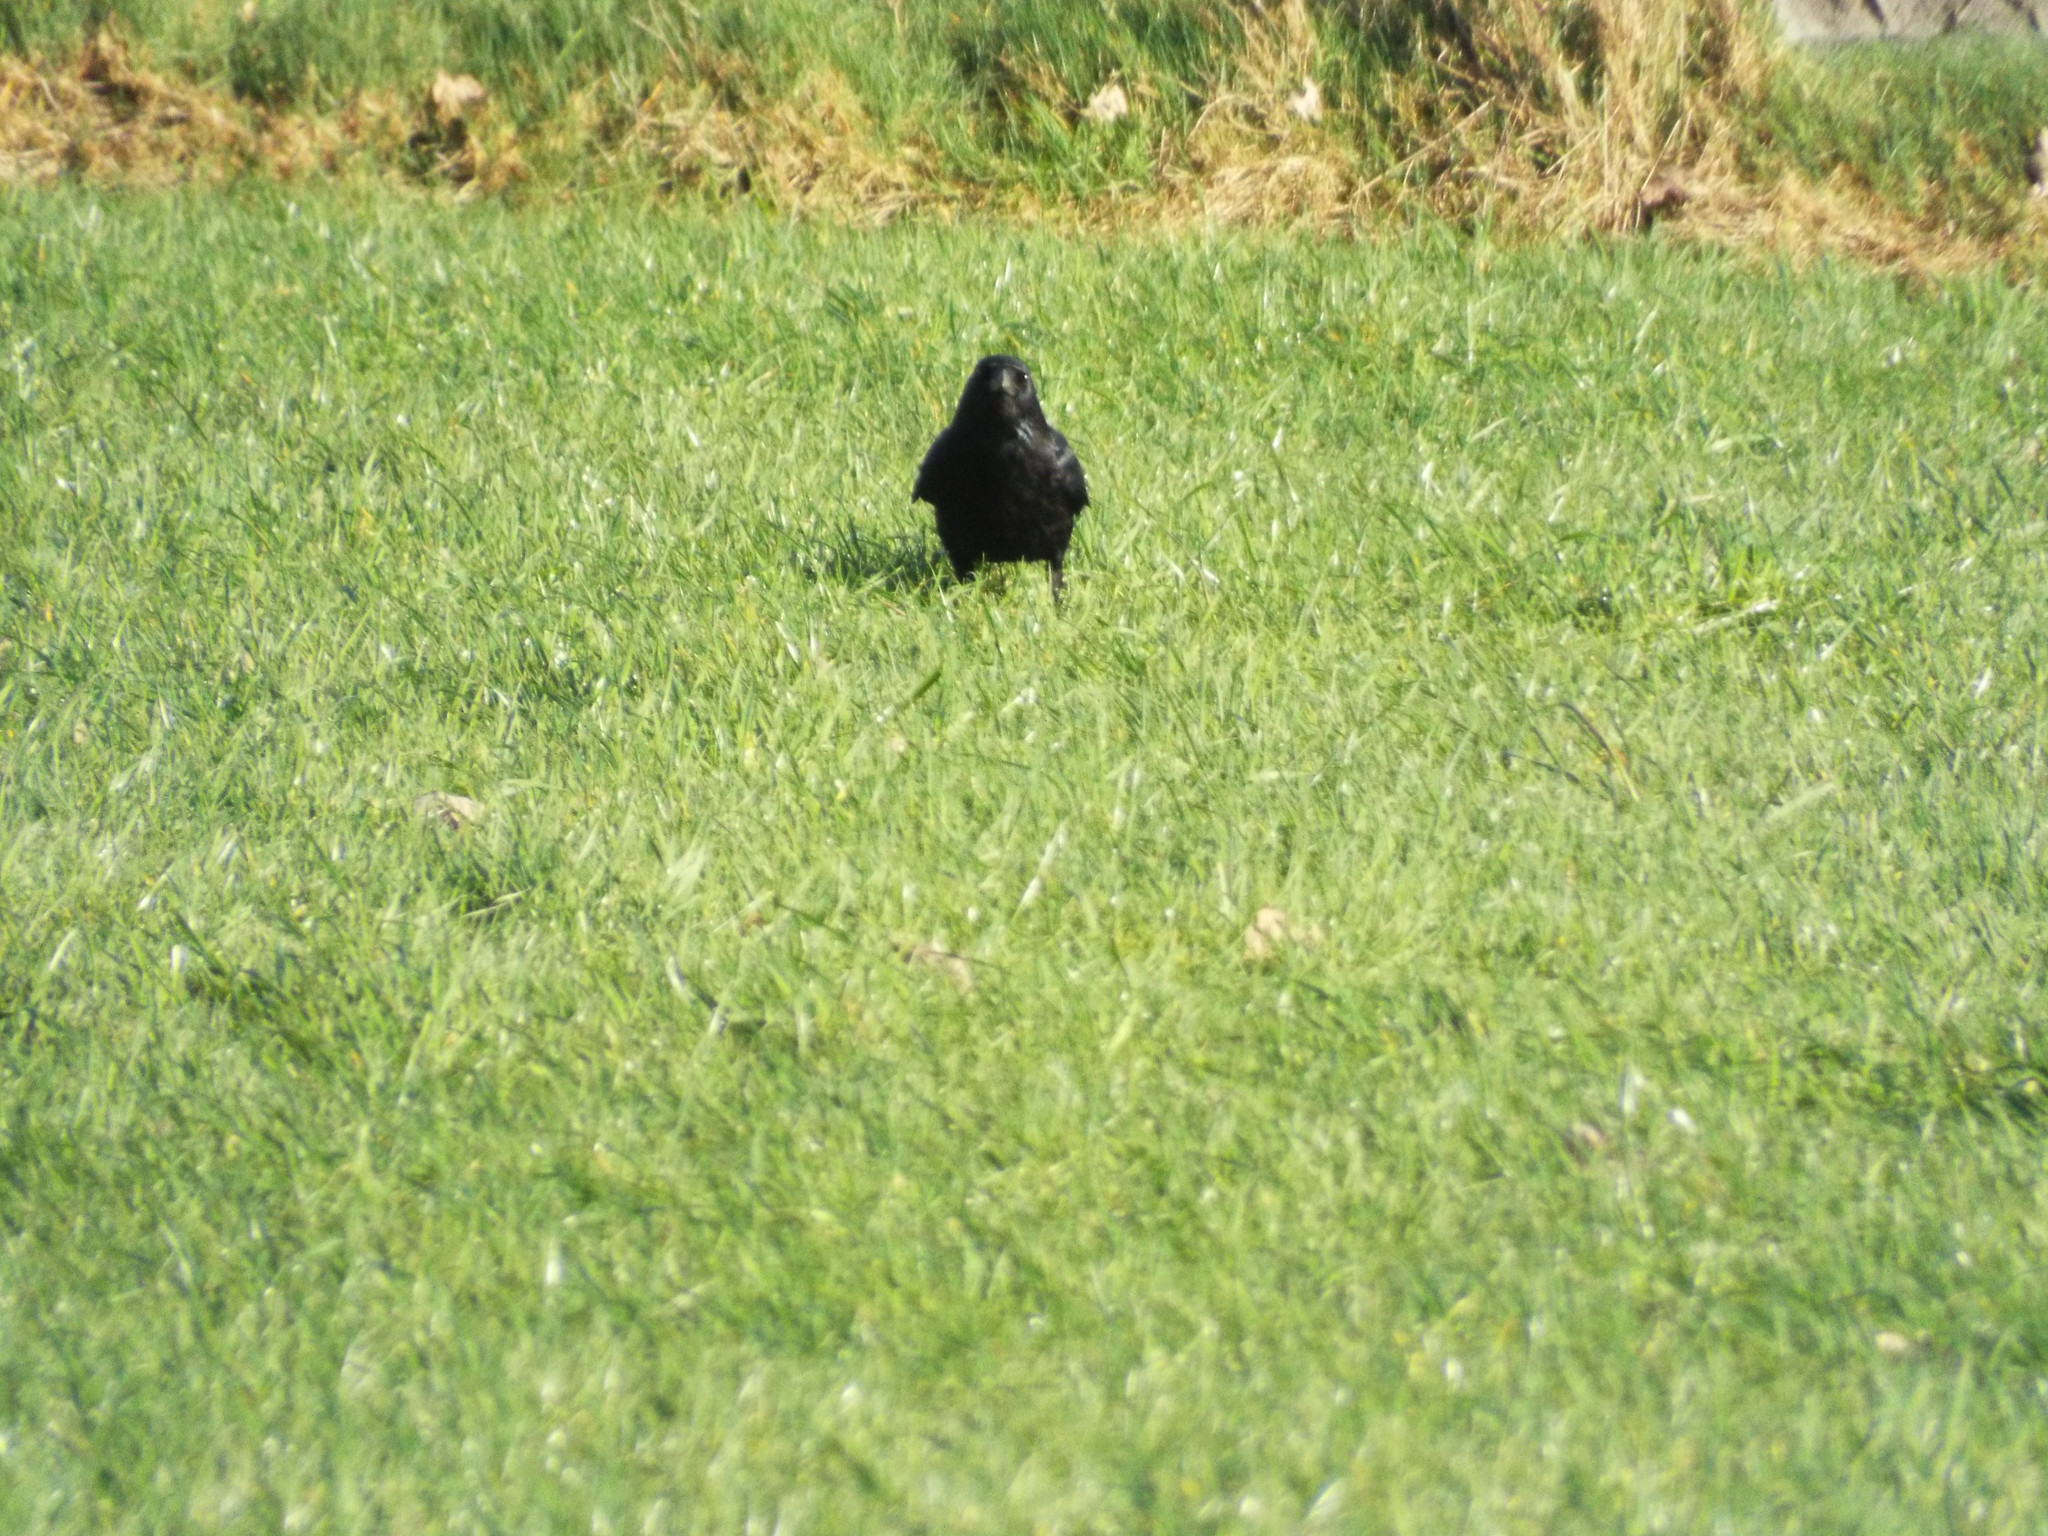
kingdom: Animalia
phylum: Chordata
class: Aves
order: Passeriformes
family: Corvidae
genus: Corvus
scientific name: Corvus corone
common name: Carrion crow
